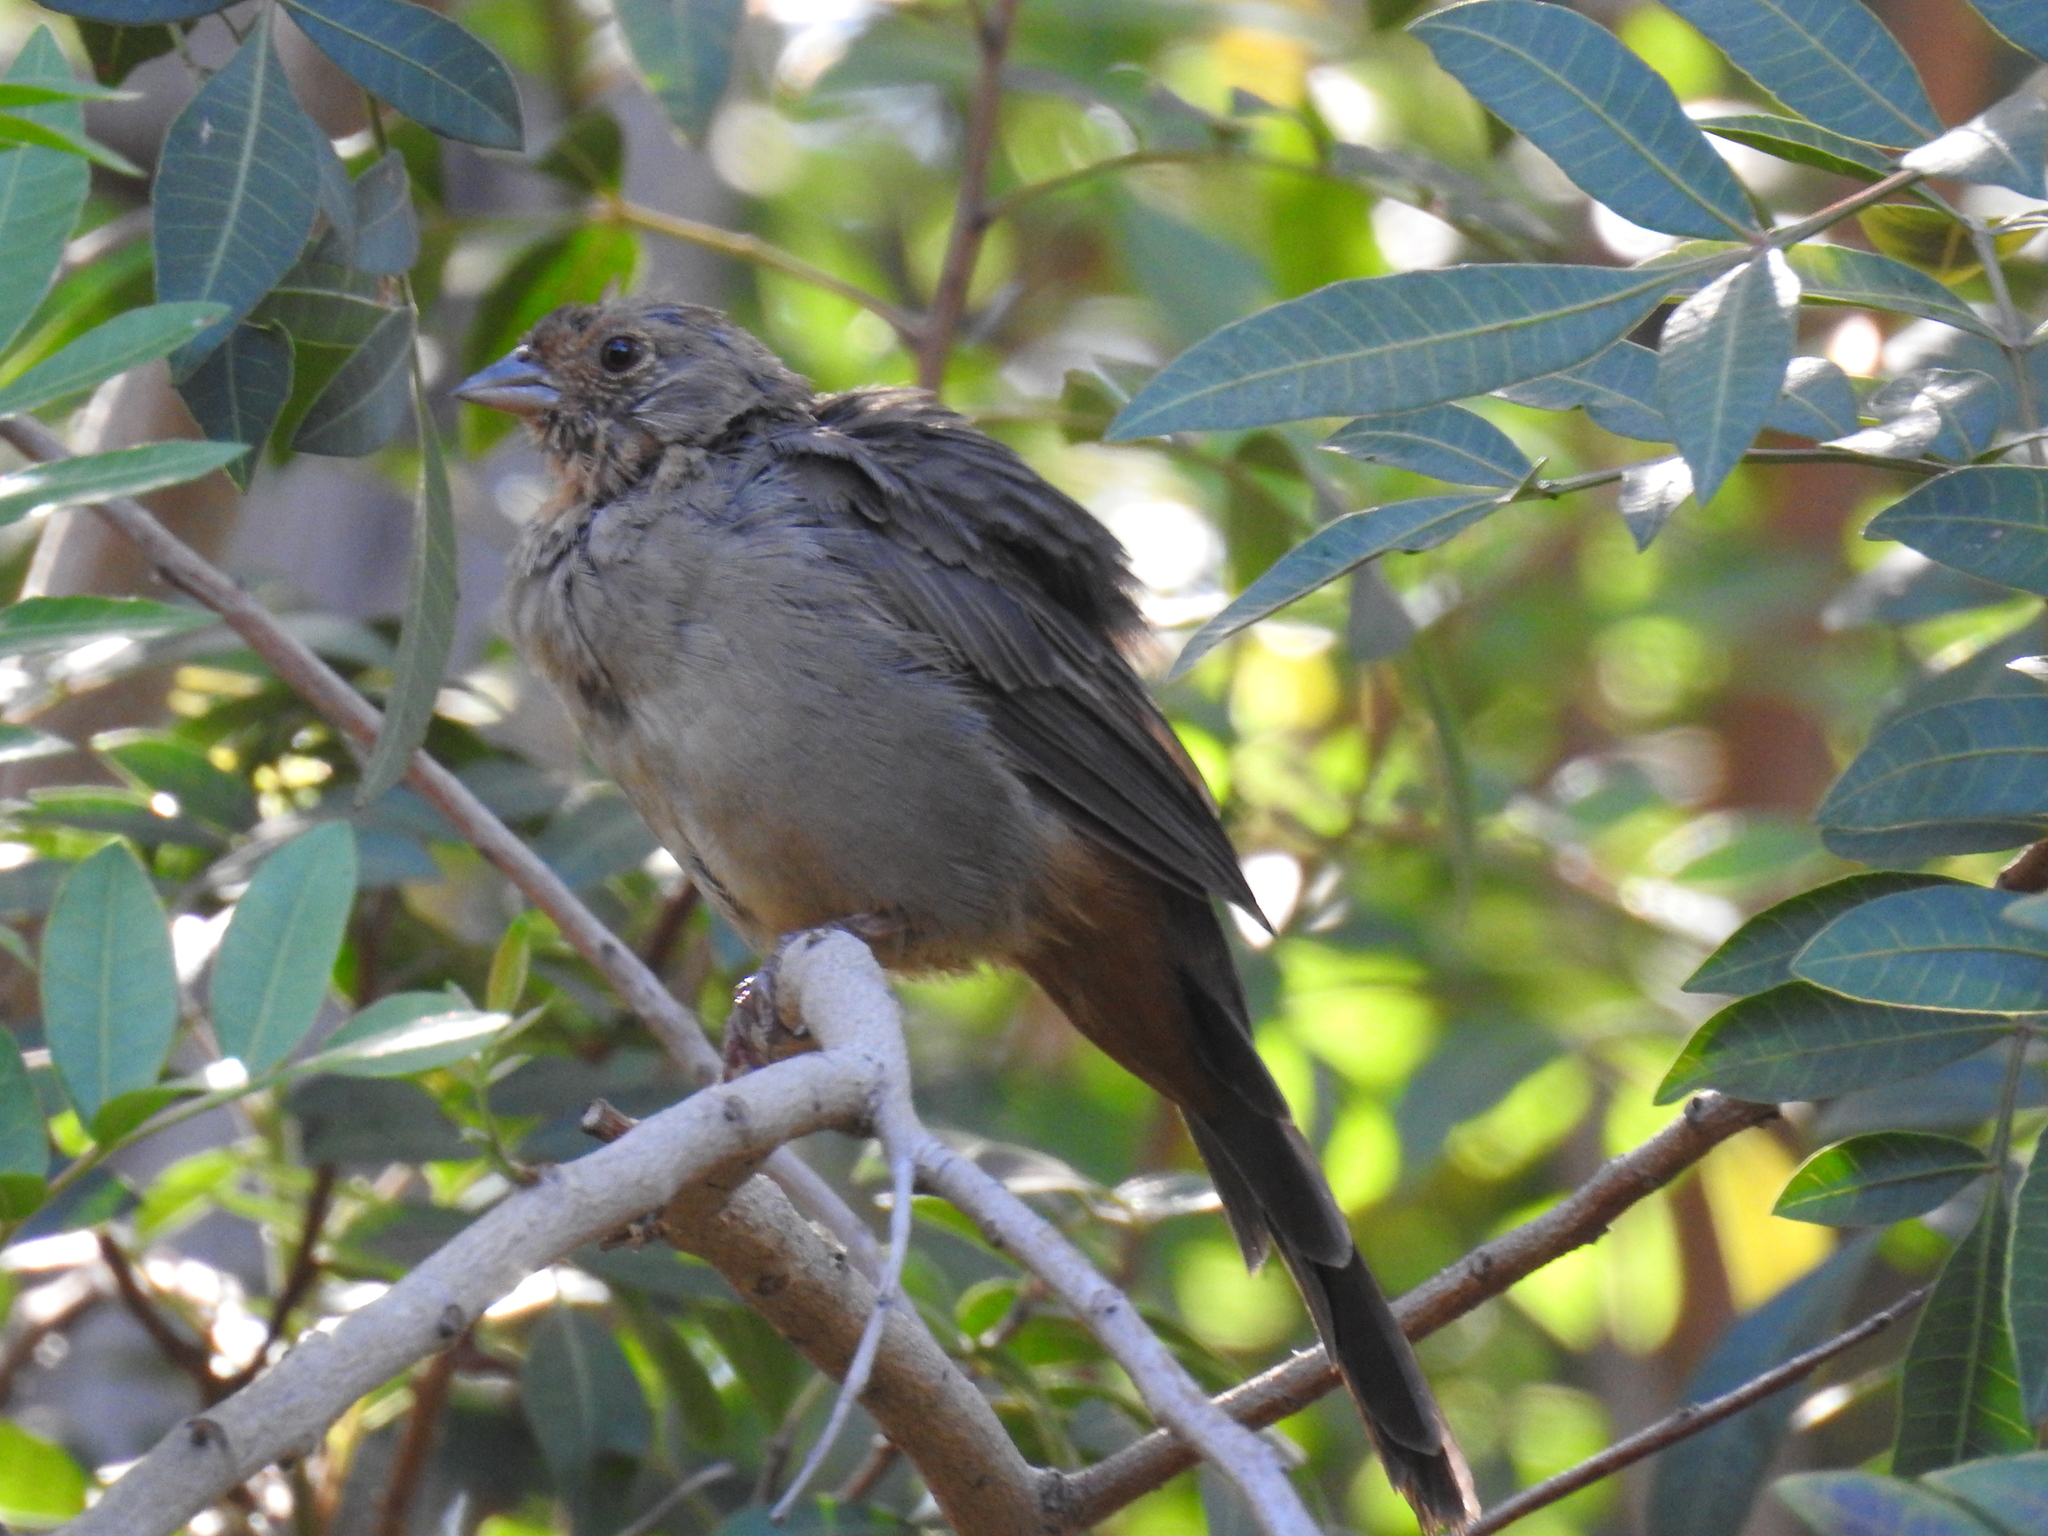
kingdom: Animalia
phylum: Chordata
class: Aves
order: Passeriformes
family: Passerellidae
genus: Melozone
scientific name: Melozone crissalis
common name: California towhee
